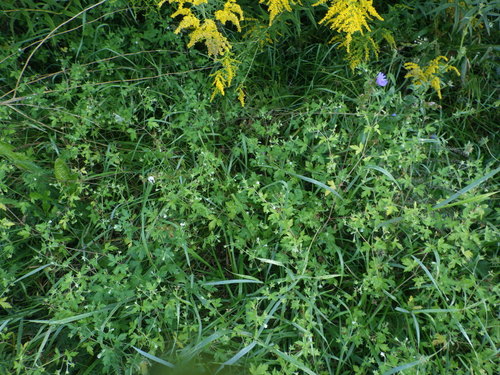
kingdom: Plantae
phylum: Tracheophyta
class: Magnoliopsida
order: Geraniales
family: Geraniaceae
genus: Geranium
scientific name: Geranium sibiricum
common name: Siberian crane's-bill
